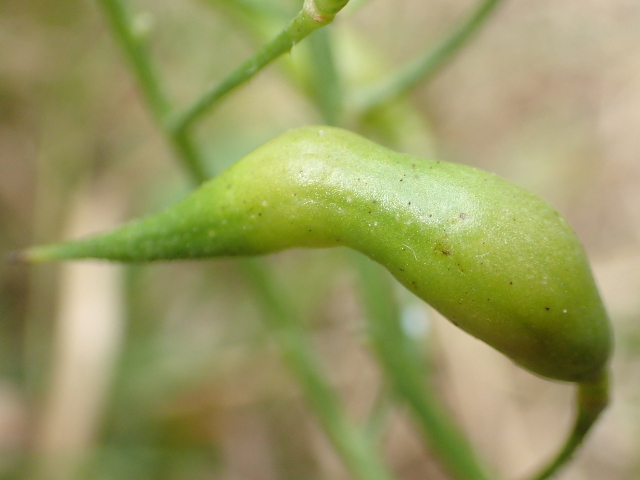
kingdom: Plantae
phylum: Tracheophyta
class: Magnoliopsida
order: Brassicales
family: Brassicaceae
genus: Raphanus
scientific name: Raphanus raphanistrum
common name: Wild radish
